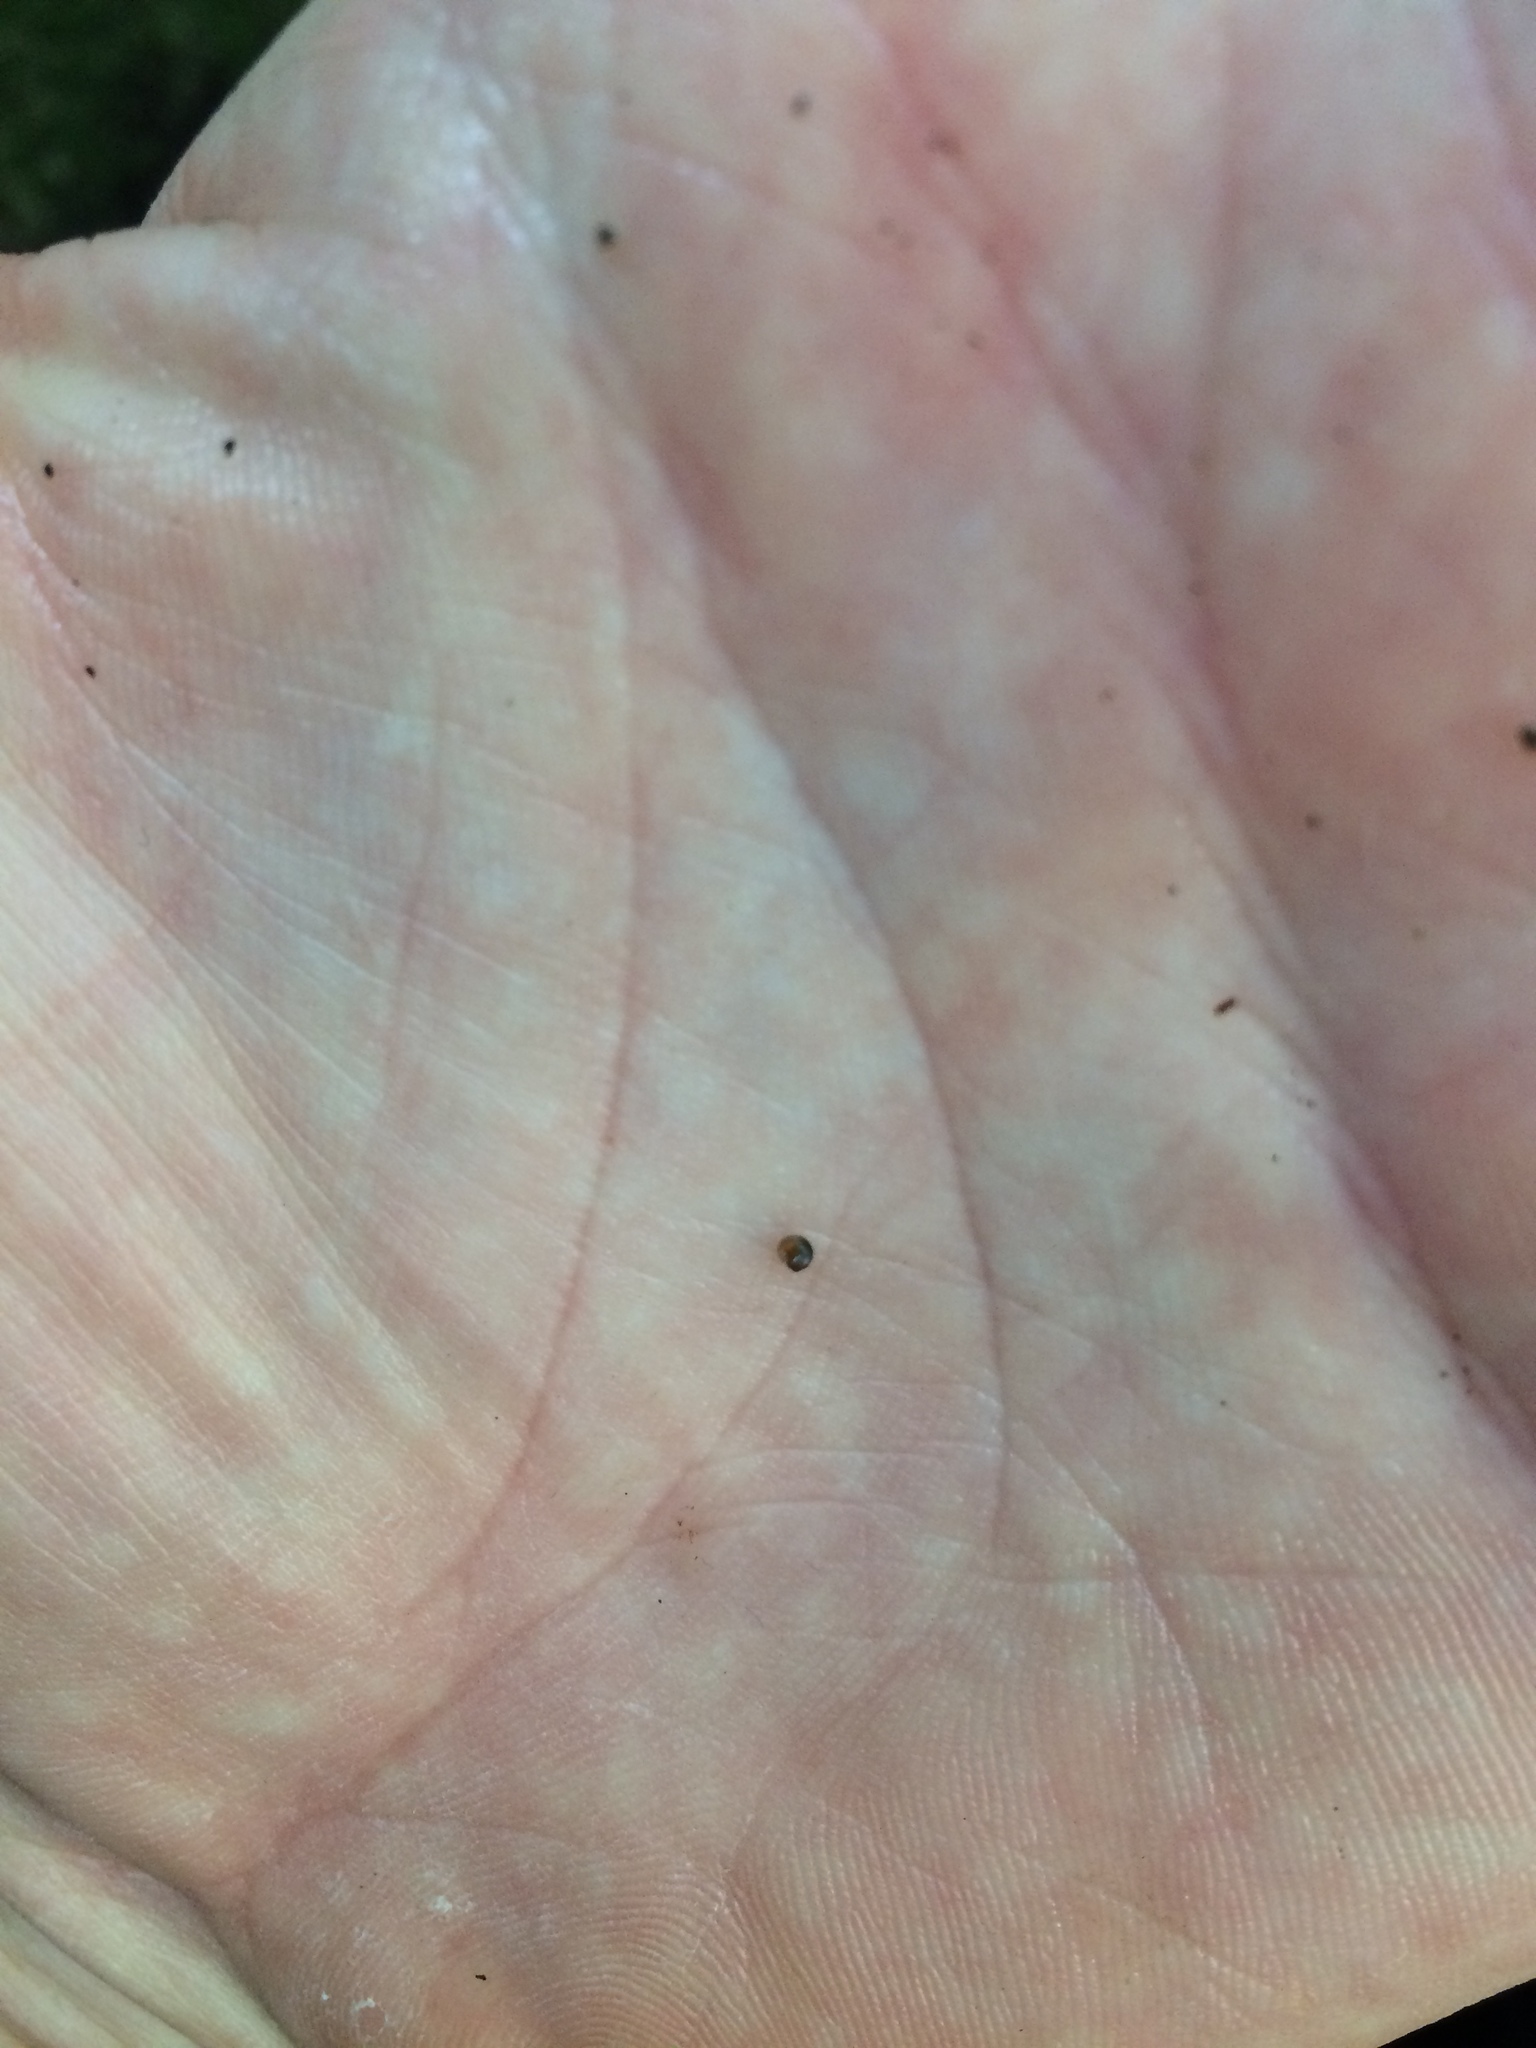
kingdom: Animalia
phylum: Mollusca
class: Gastropoda
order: Littorinimorpha
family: Tateidae
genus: Potamopyrgus
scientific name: Potamopyrgus antipodarum
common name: Jenkins' spire snail
